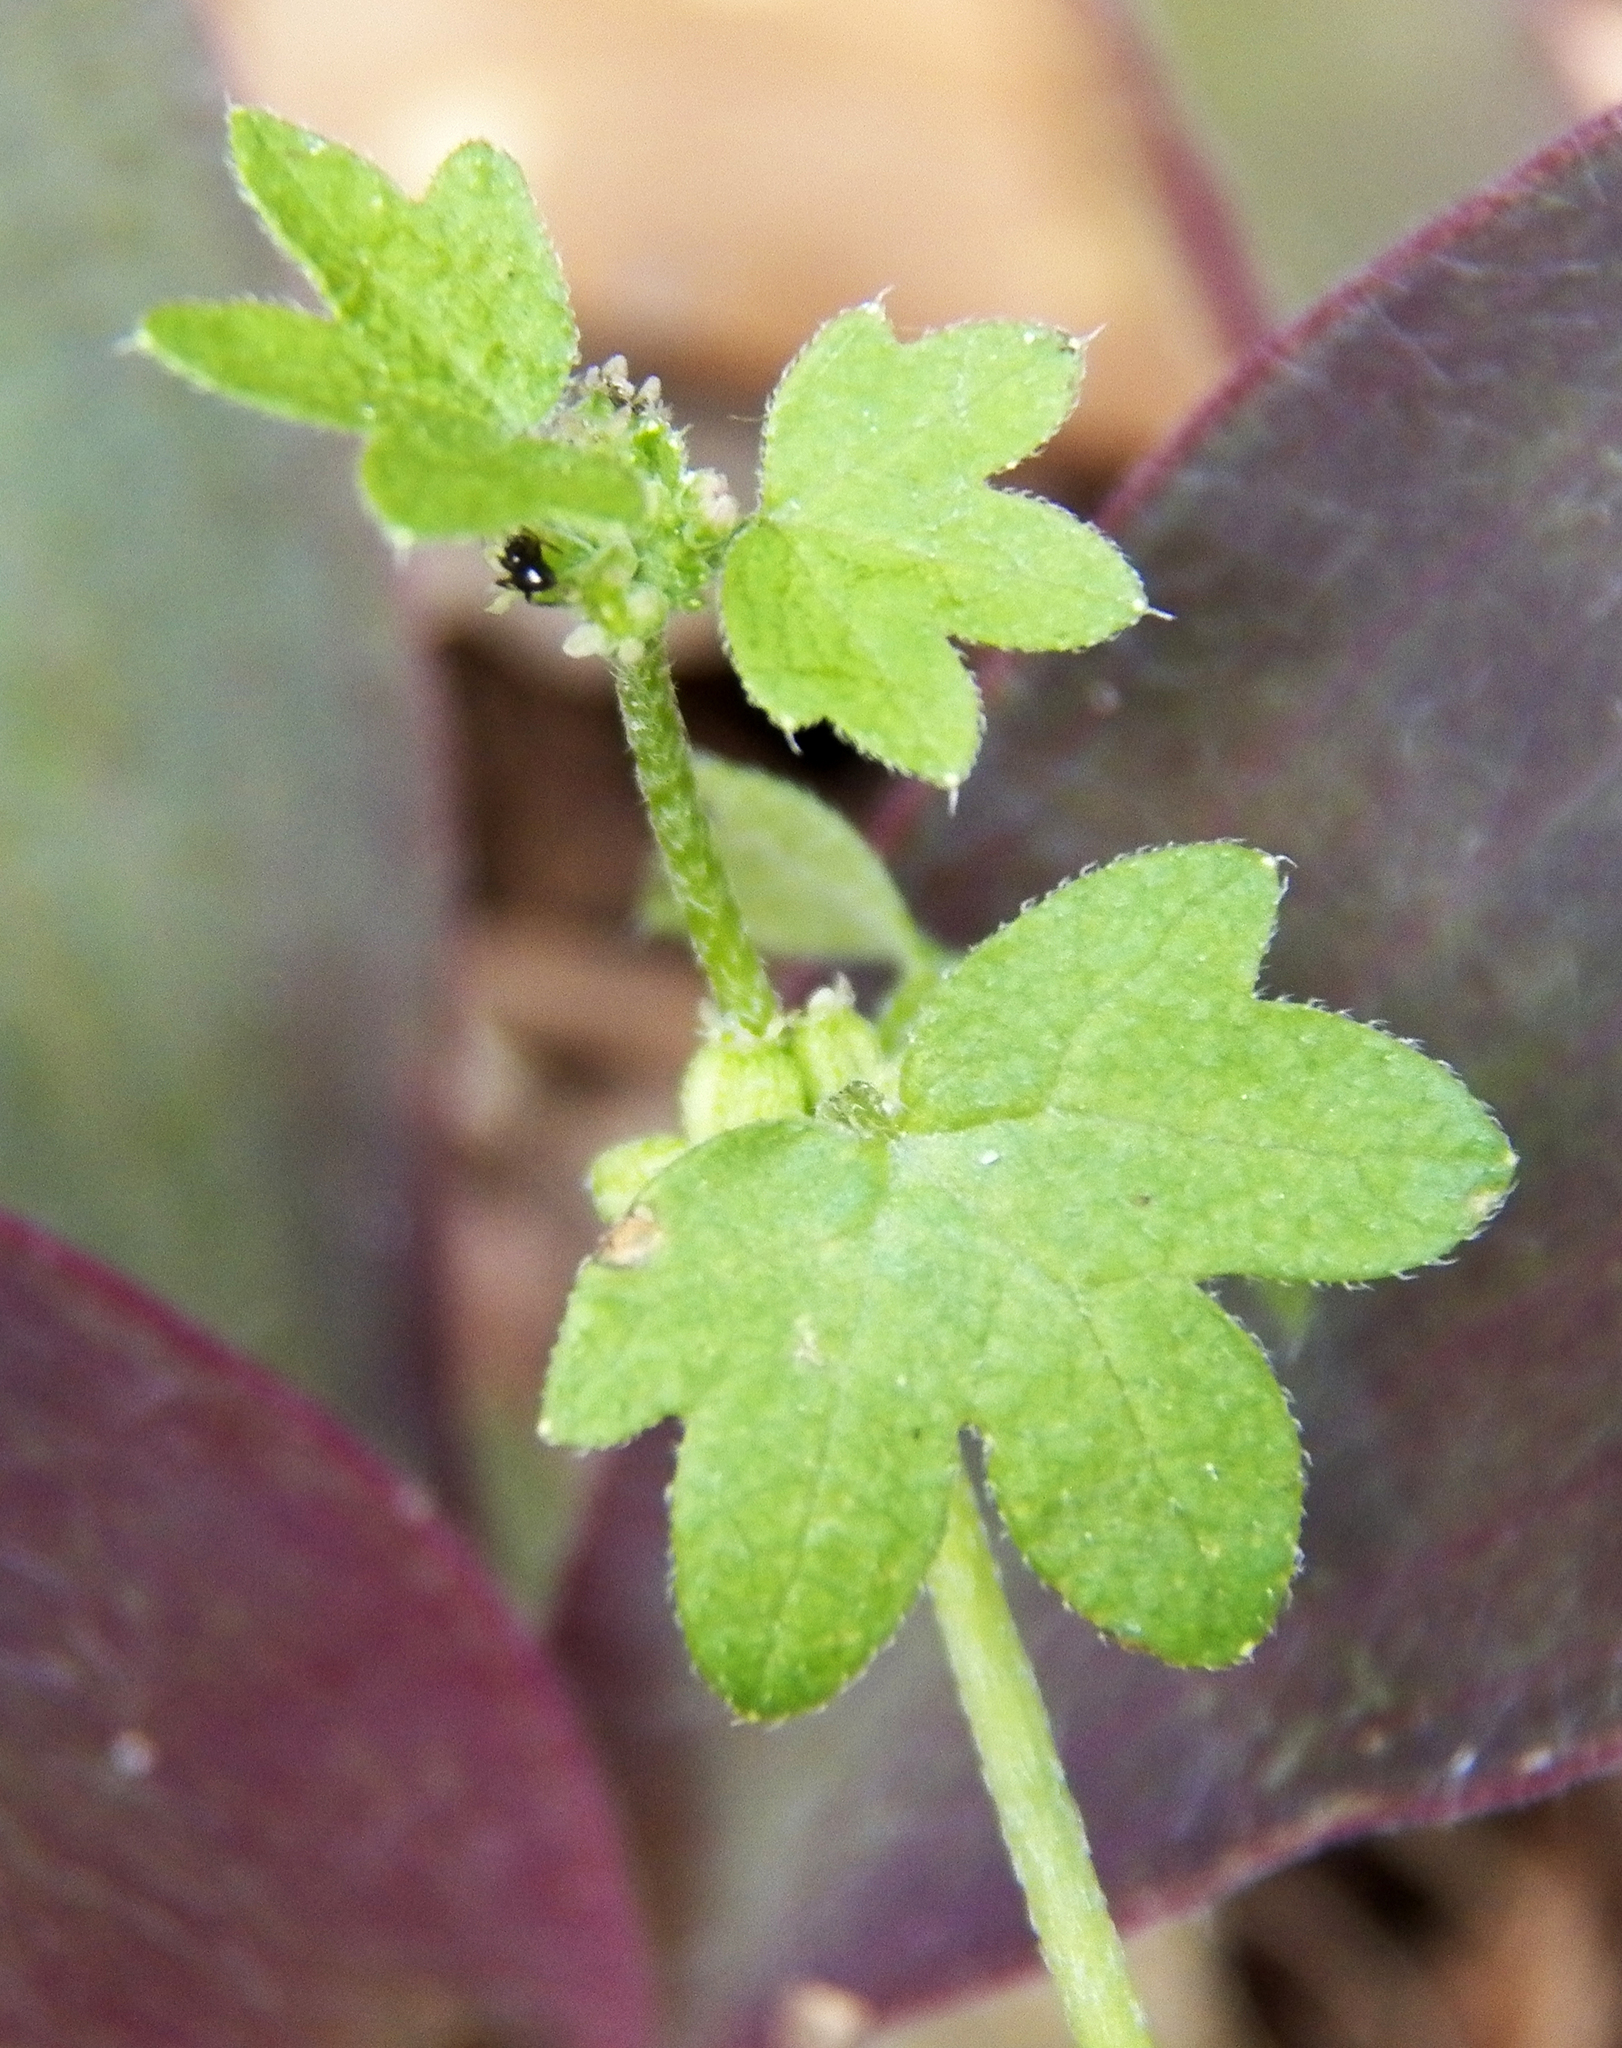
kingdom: Plantae
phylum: Tracheophyta
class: Magnoliopsida
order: Apiales
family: Apiaceae
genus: Bowlesia
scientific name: Bowlesia incana
